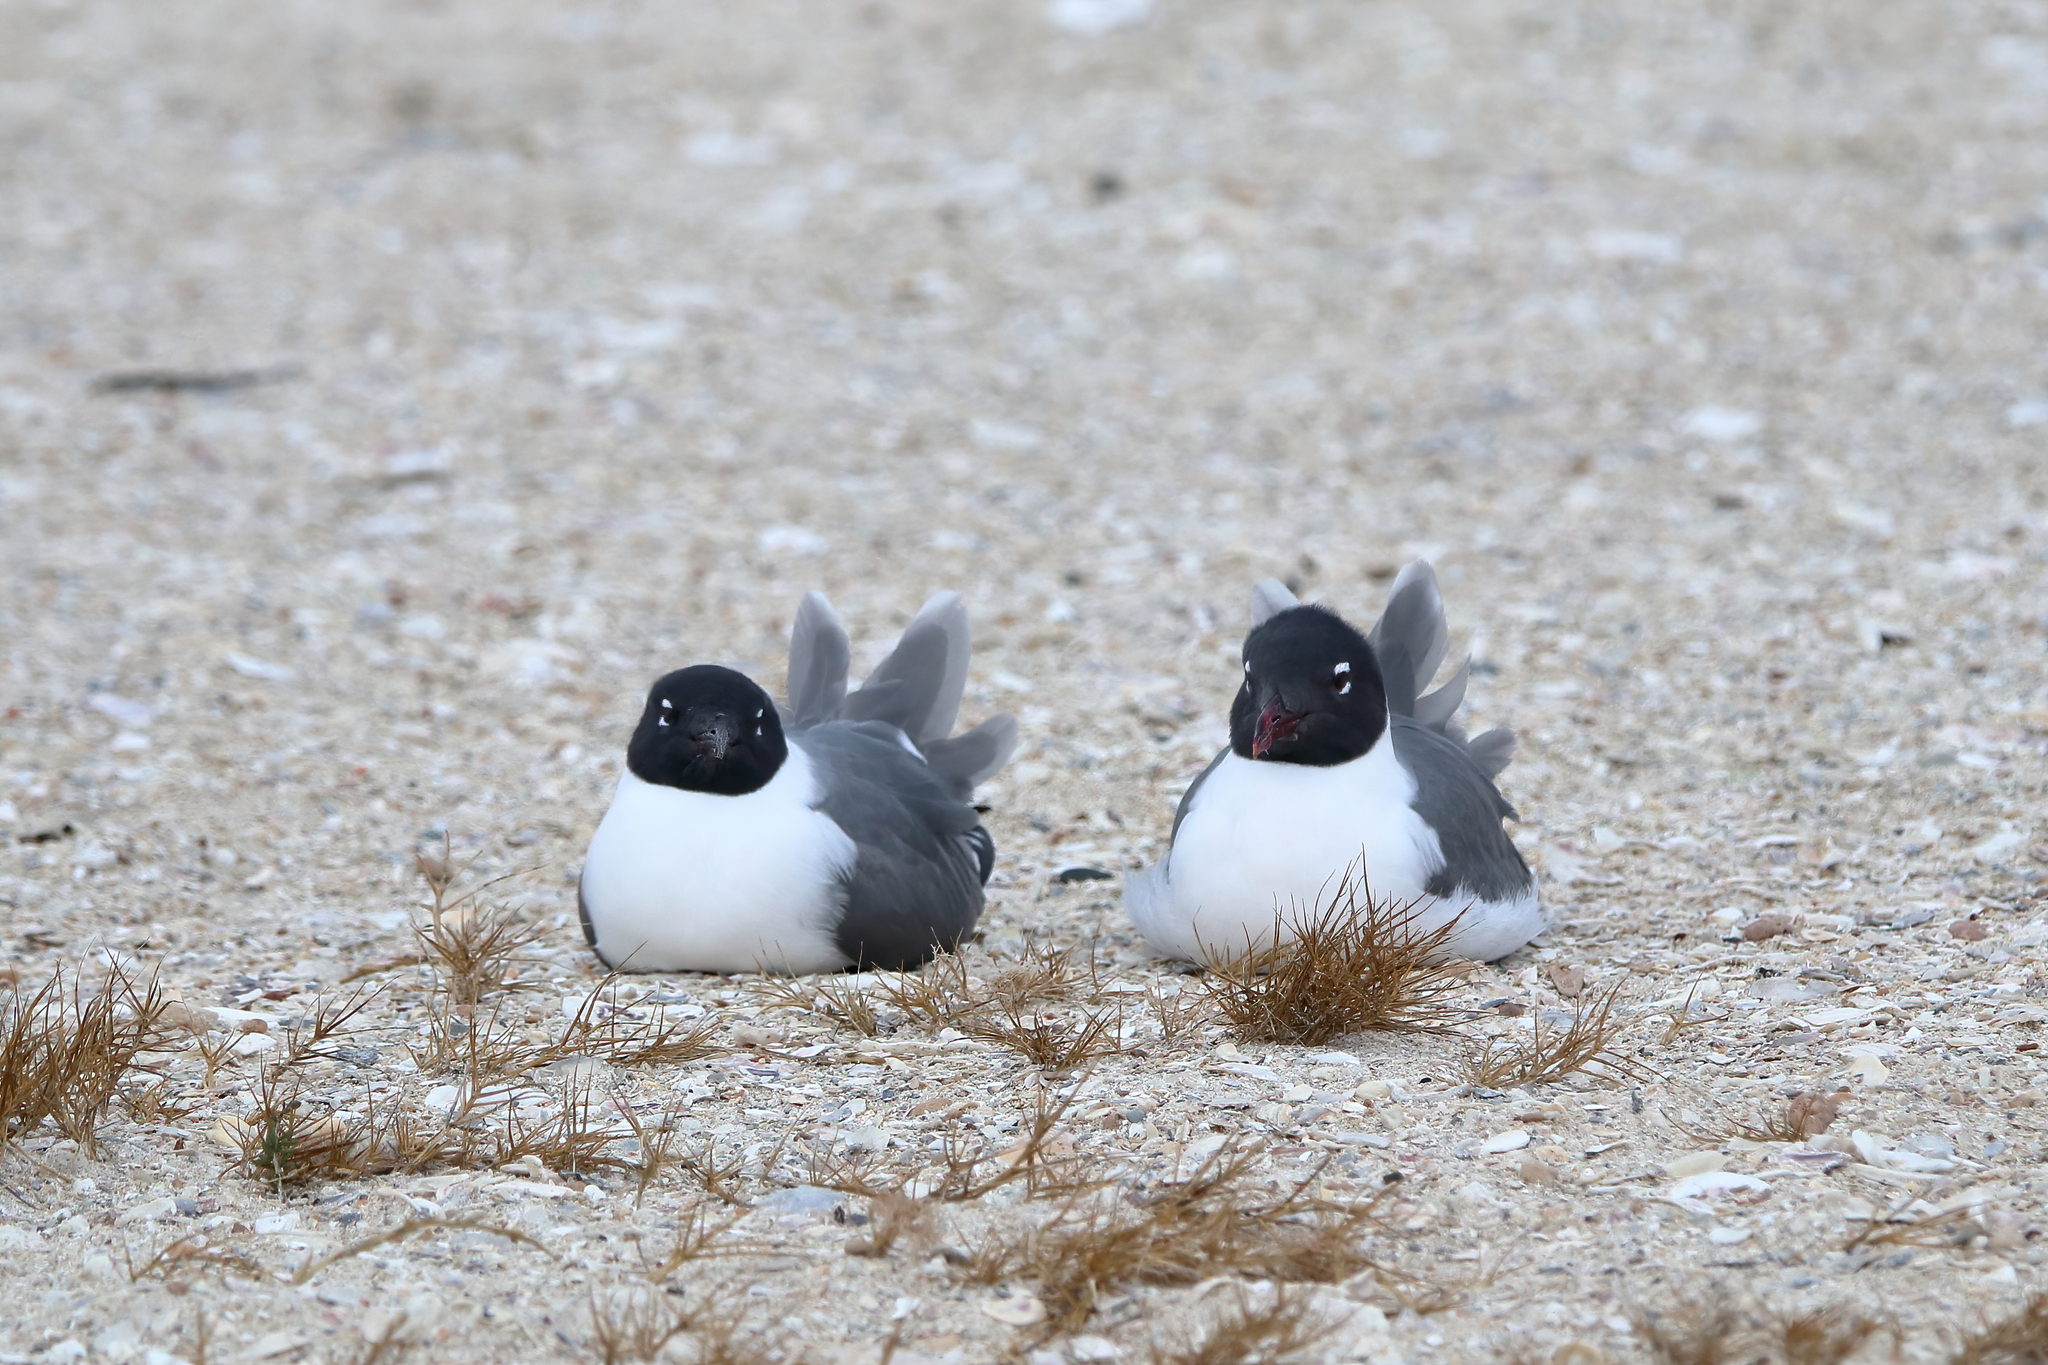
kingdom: Animalia
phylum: Chordata
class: Aves
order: Charadriiformes
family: Laridae
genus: Leucophaeus
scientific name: Leucophaeus atricilla
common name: Laughing gull
